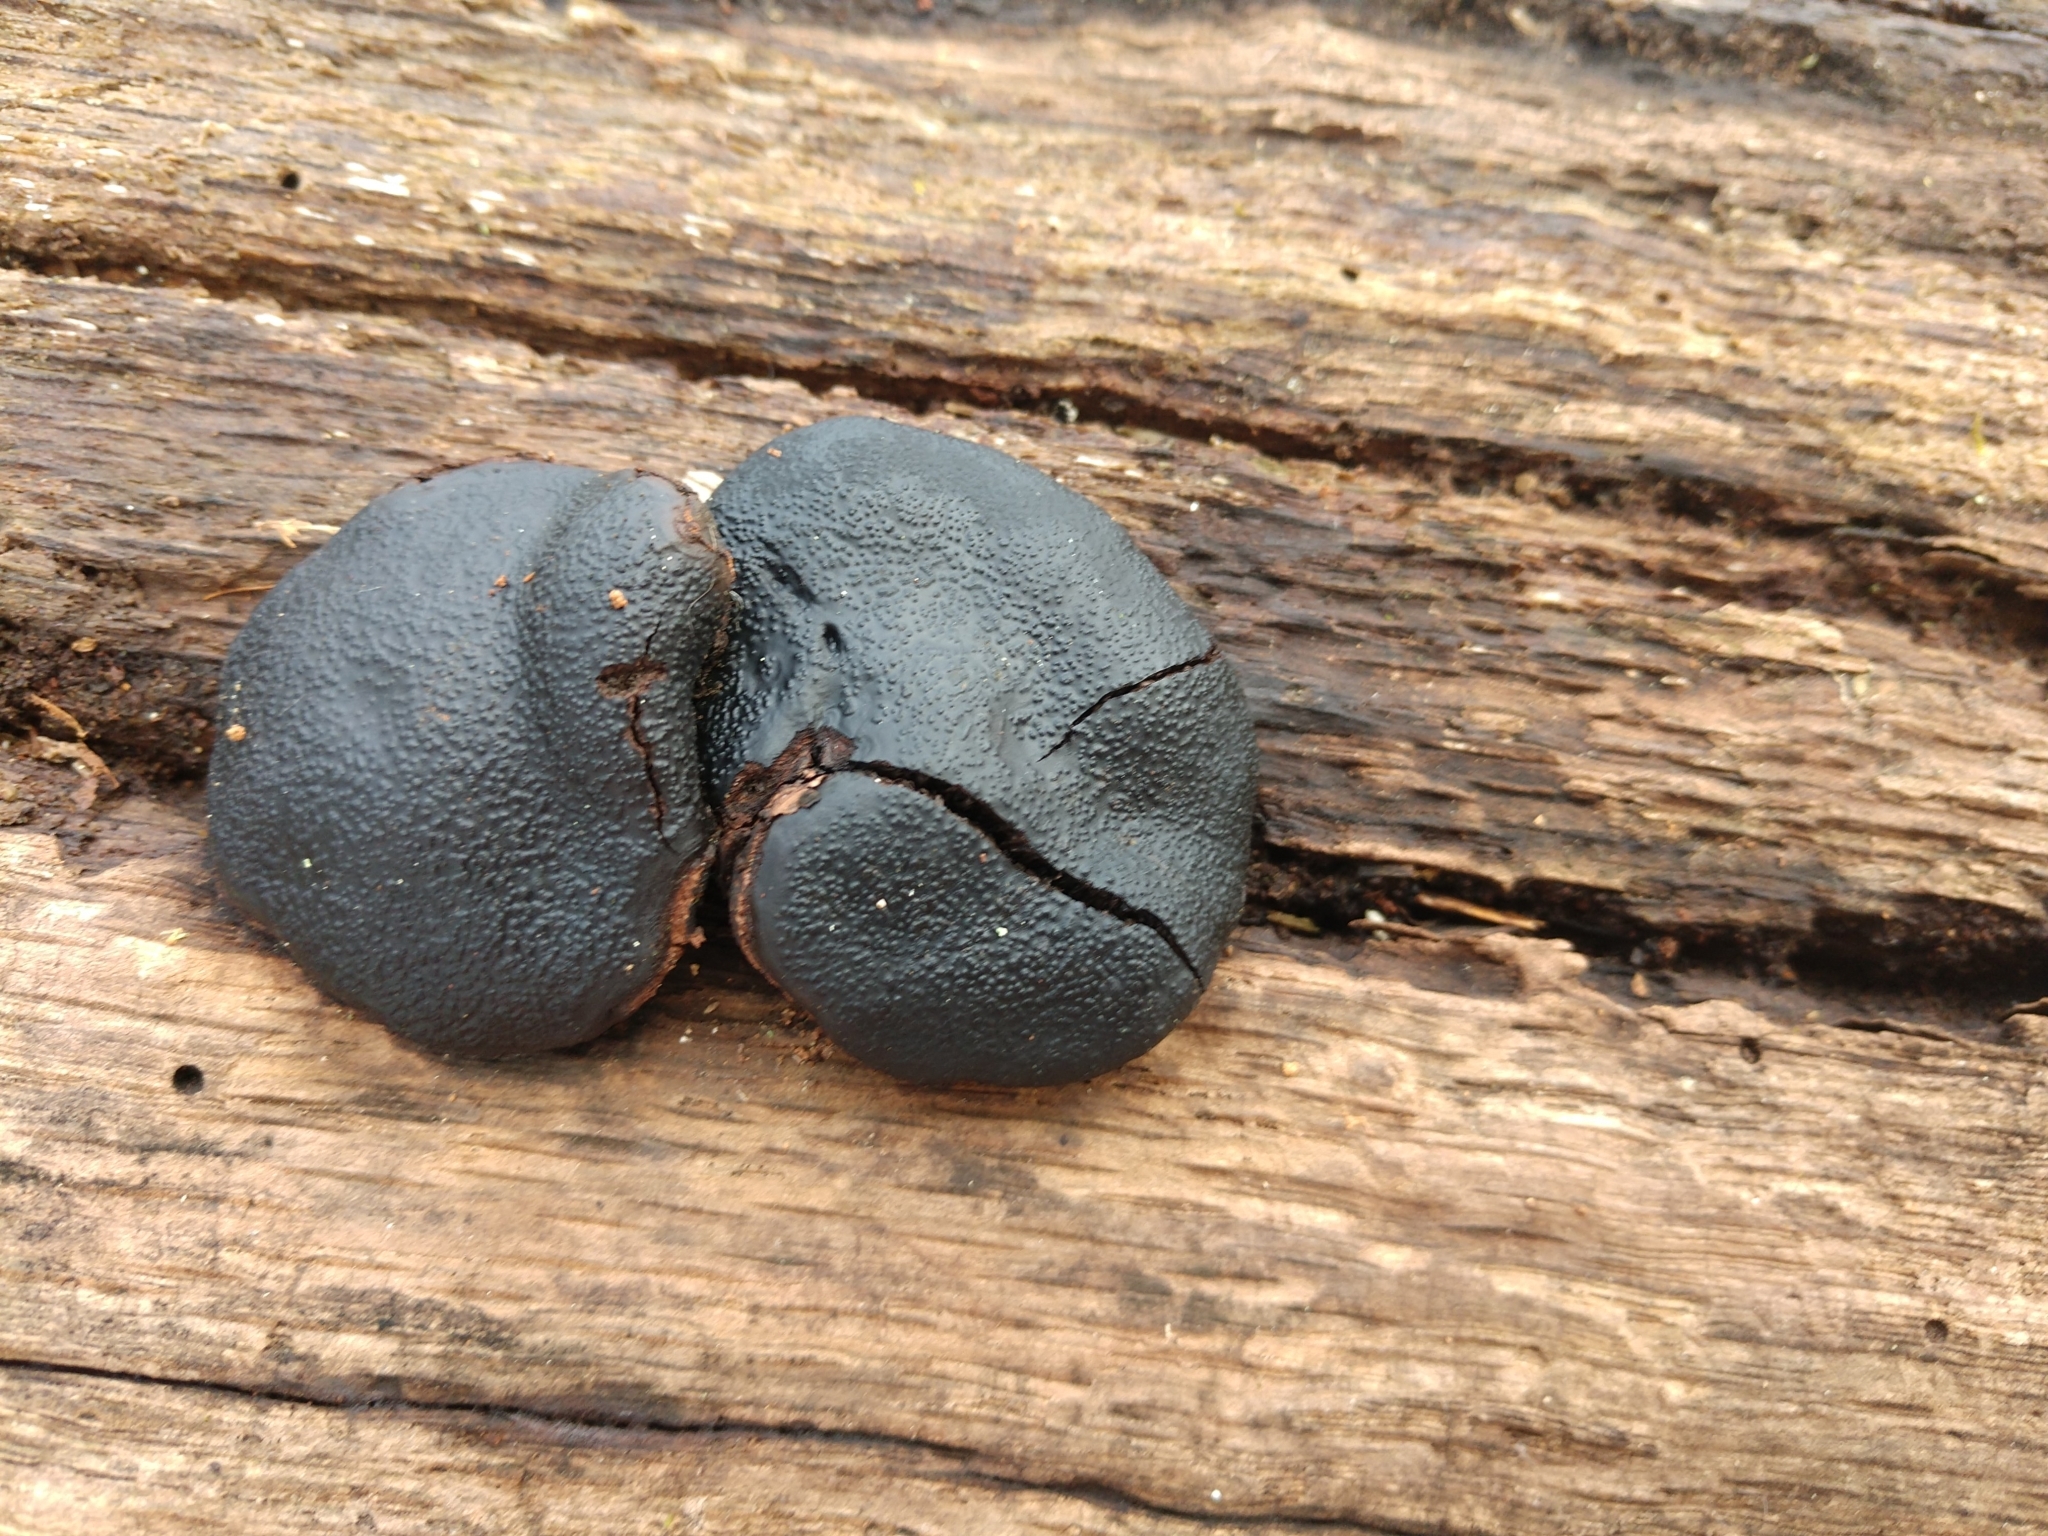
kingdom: Fungi
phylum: Ascomycota
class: Sordariomycetes
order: Boliniales
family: Boliniaceae
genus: Camarops
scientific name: Camarops petersii
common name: Dog's nose fungus
